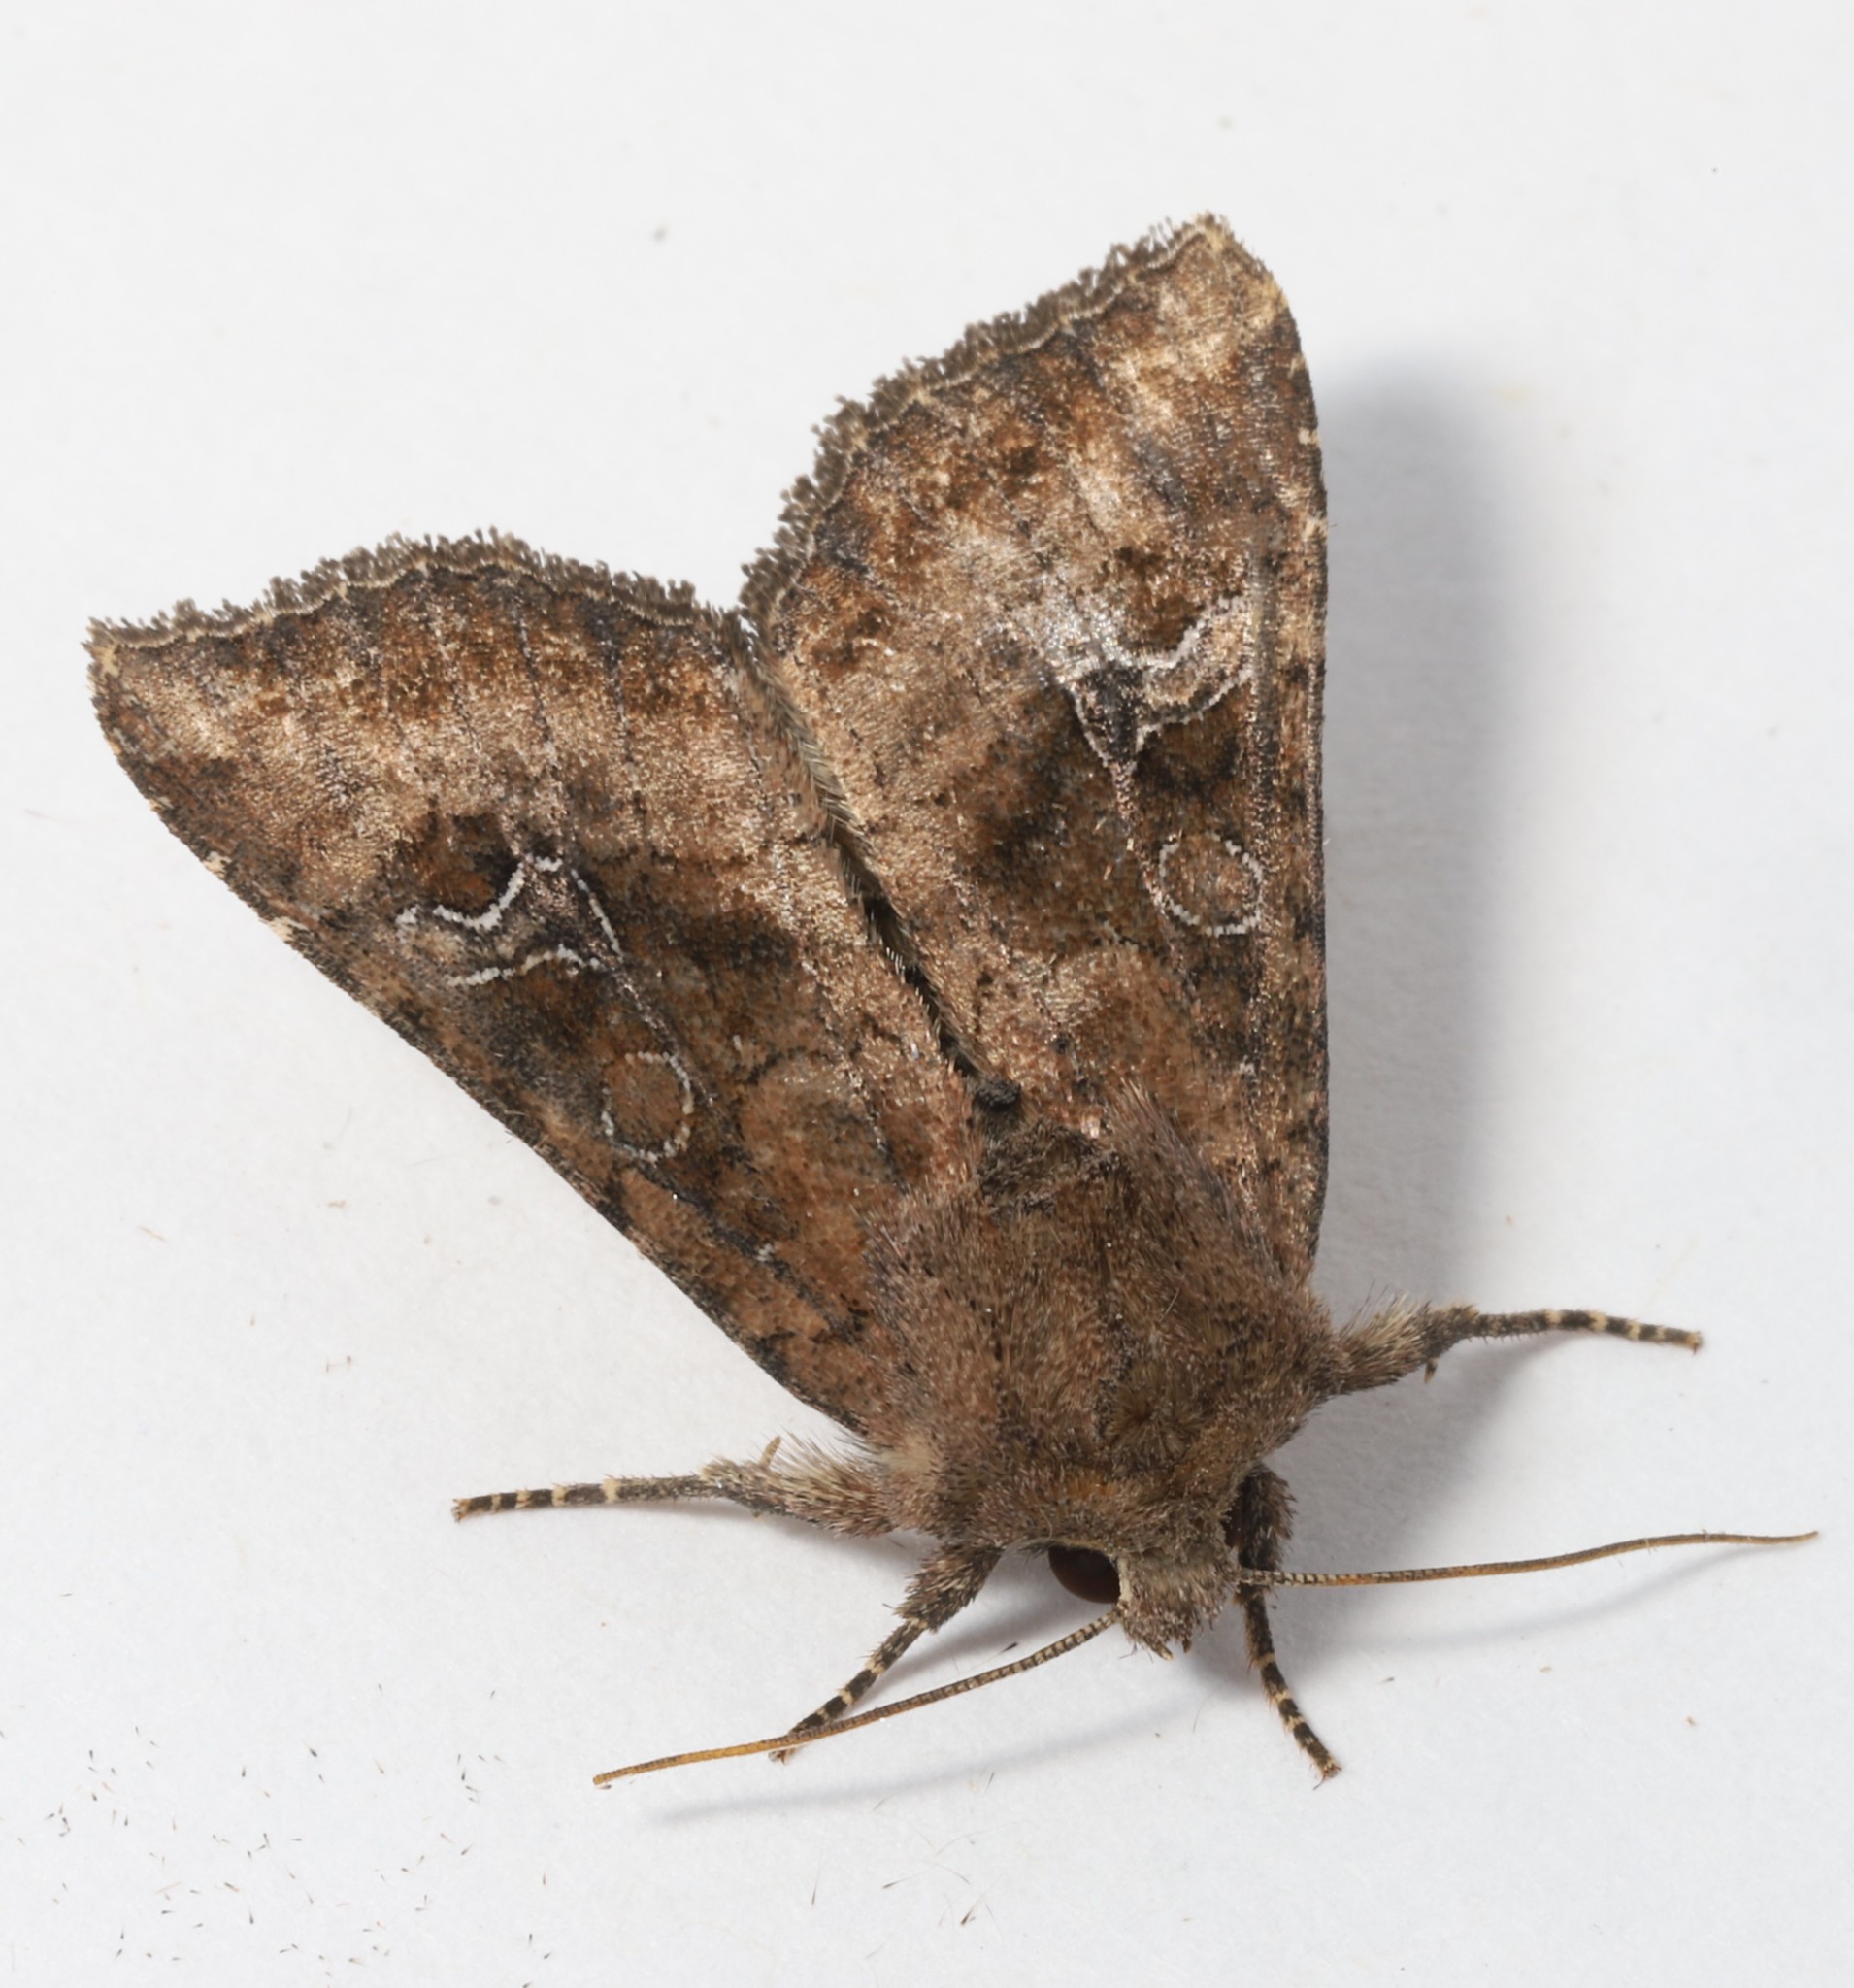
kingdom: Animalia
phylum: Arthropoda
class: Insecta
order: Lepidoptera
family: Noctuidae
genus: Loscopia
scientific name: Loscopia velata
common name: Veiled ear moth
